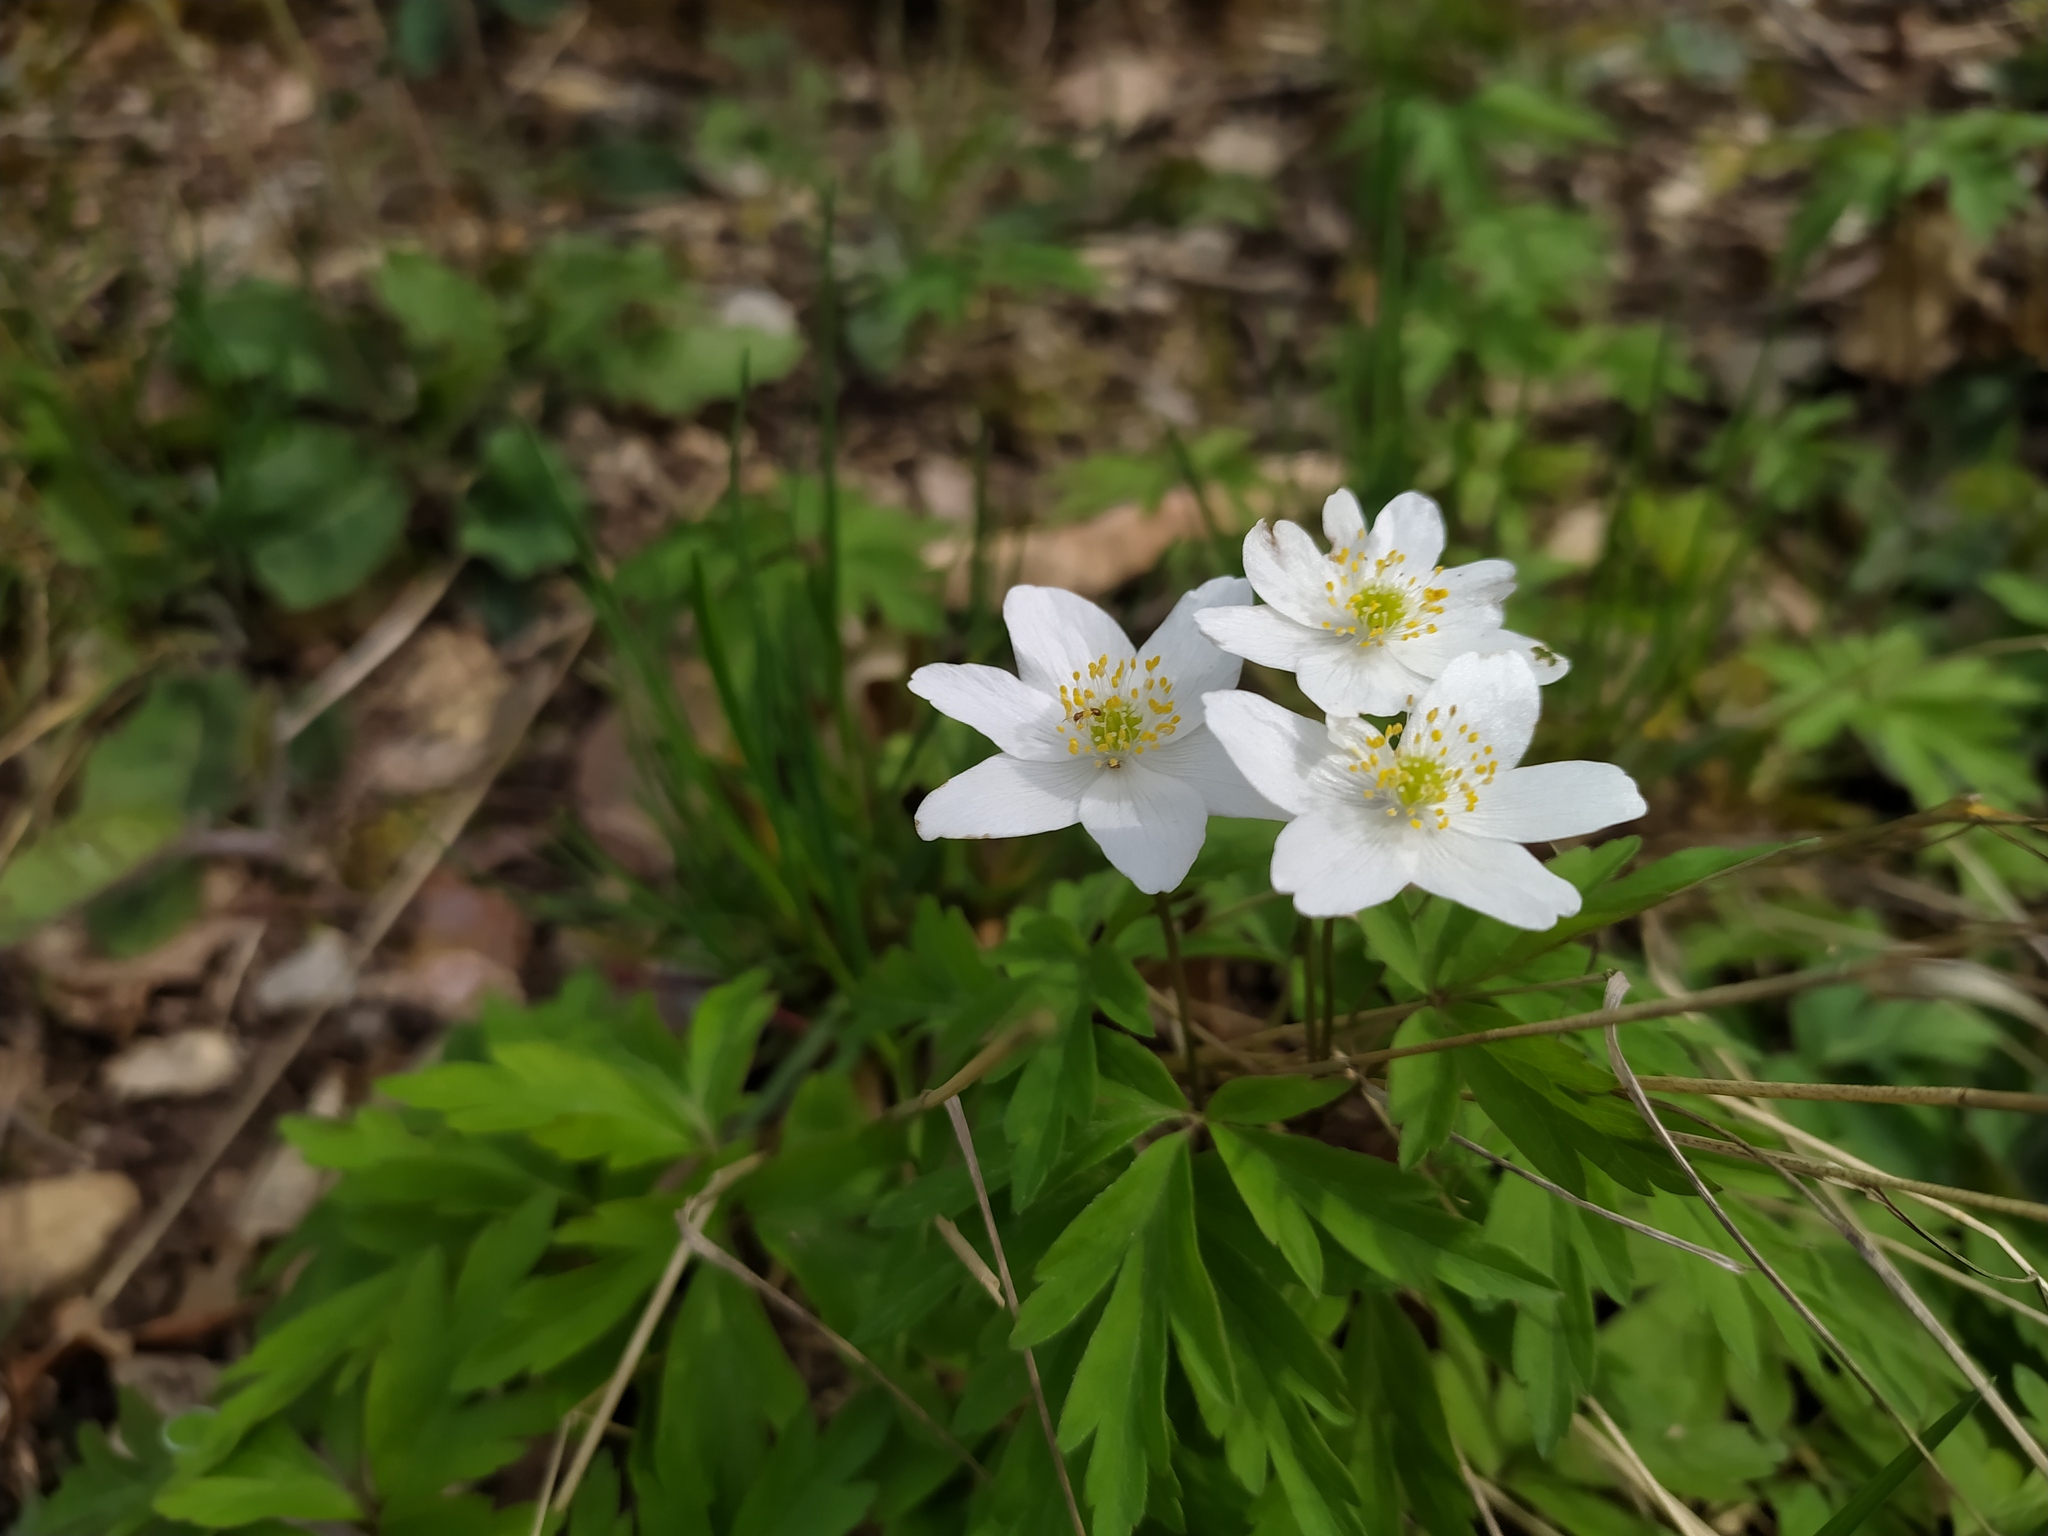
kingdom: Plantae
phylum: Tracheophyta
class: Magnoliopsida
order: Ranunculales
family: Ranunculaceae
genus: Anemone
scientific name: Anemone nemorosa
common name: Wood anemone
